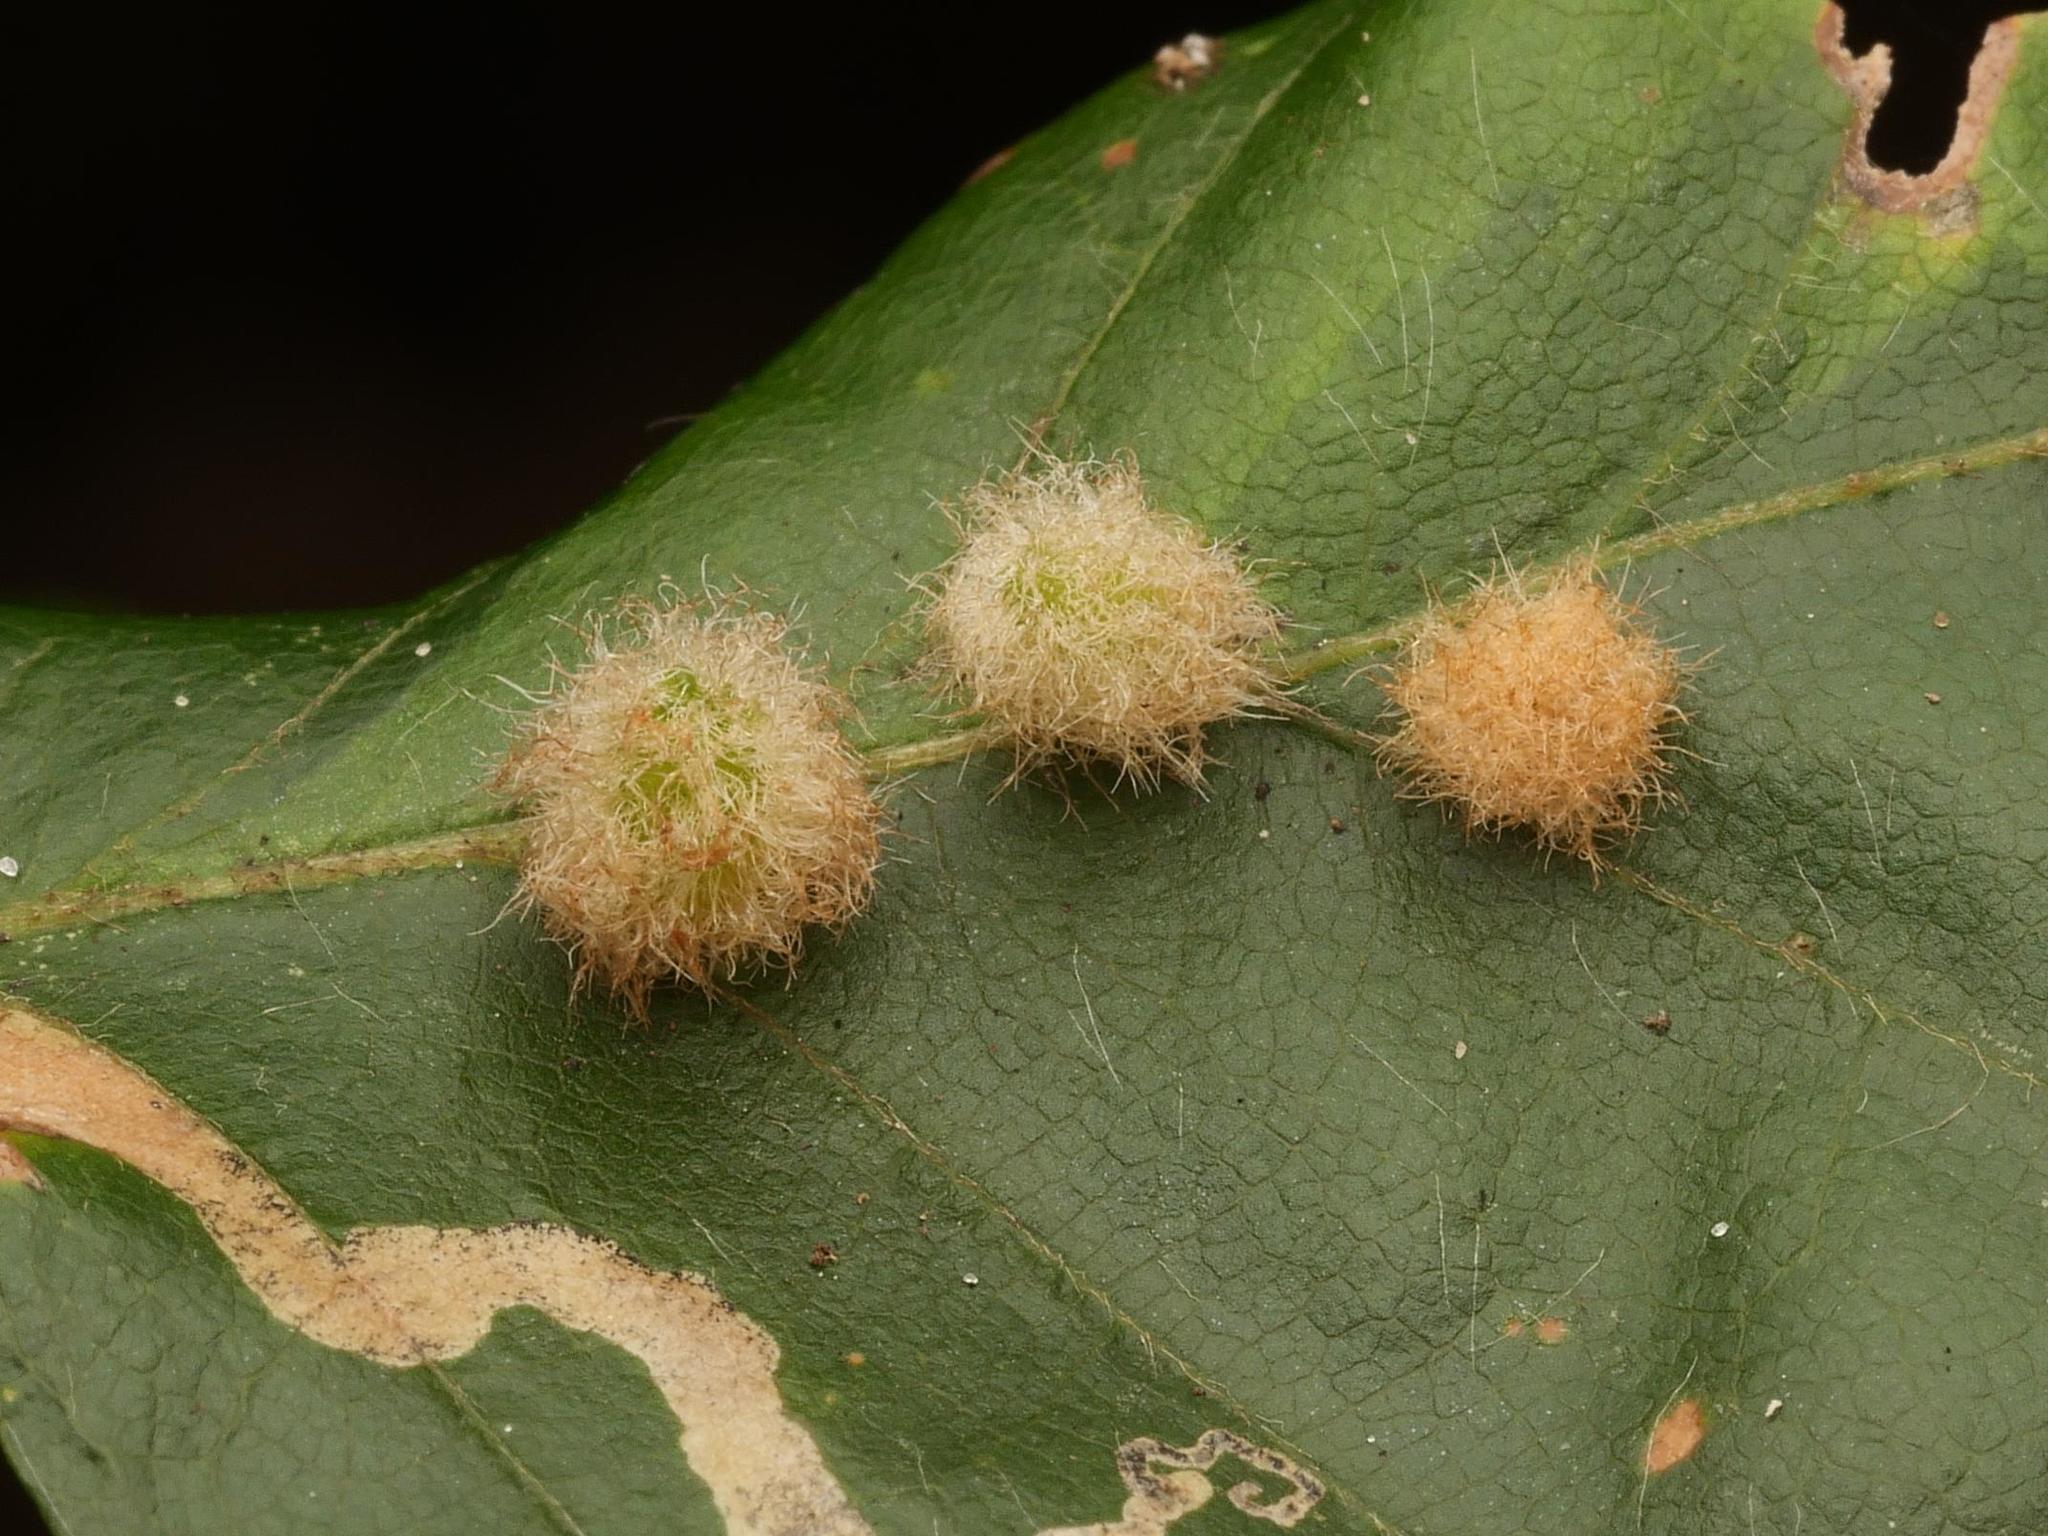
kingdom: Animalia
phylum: Arthropoda
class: Insecta
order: Diptera
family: Cecidomyiidae
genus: Hartigiola
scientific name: Hartigiola annulipes
